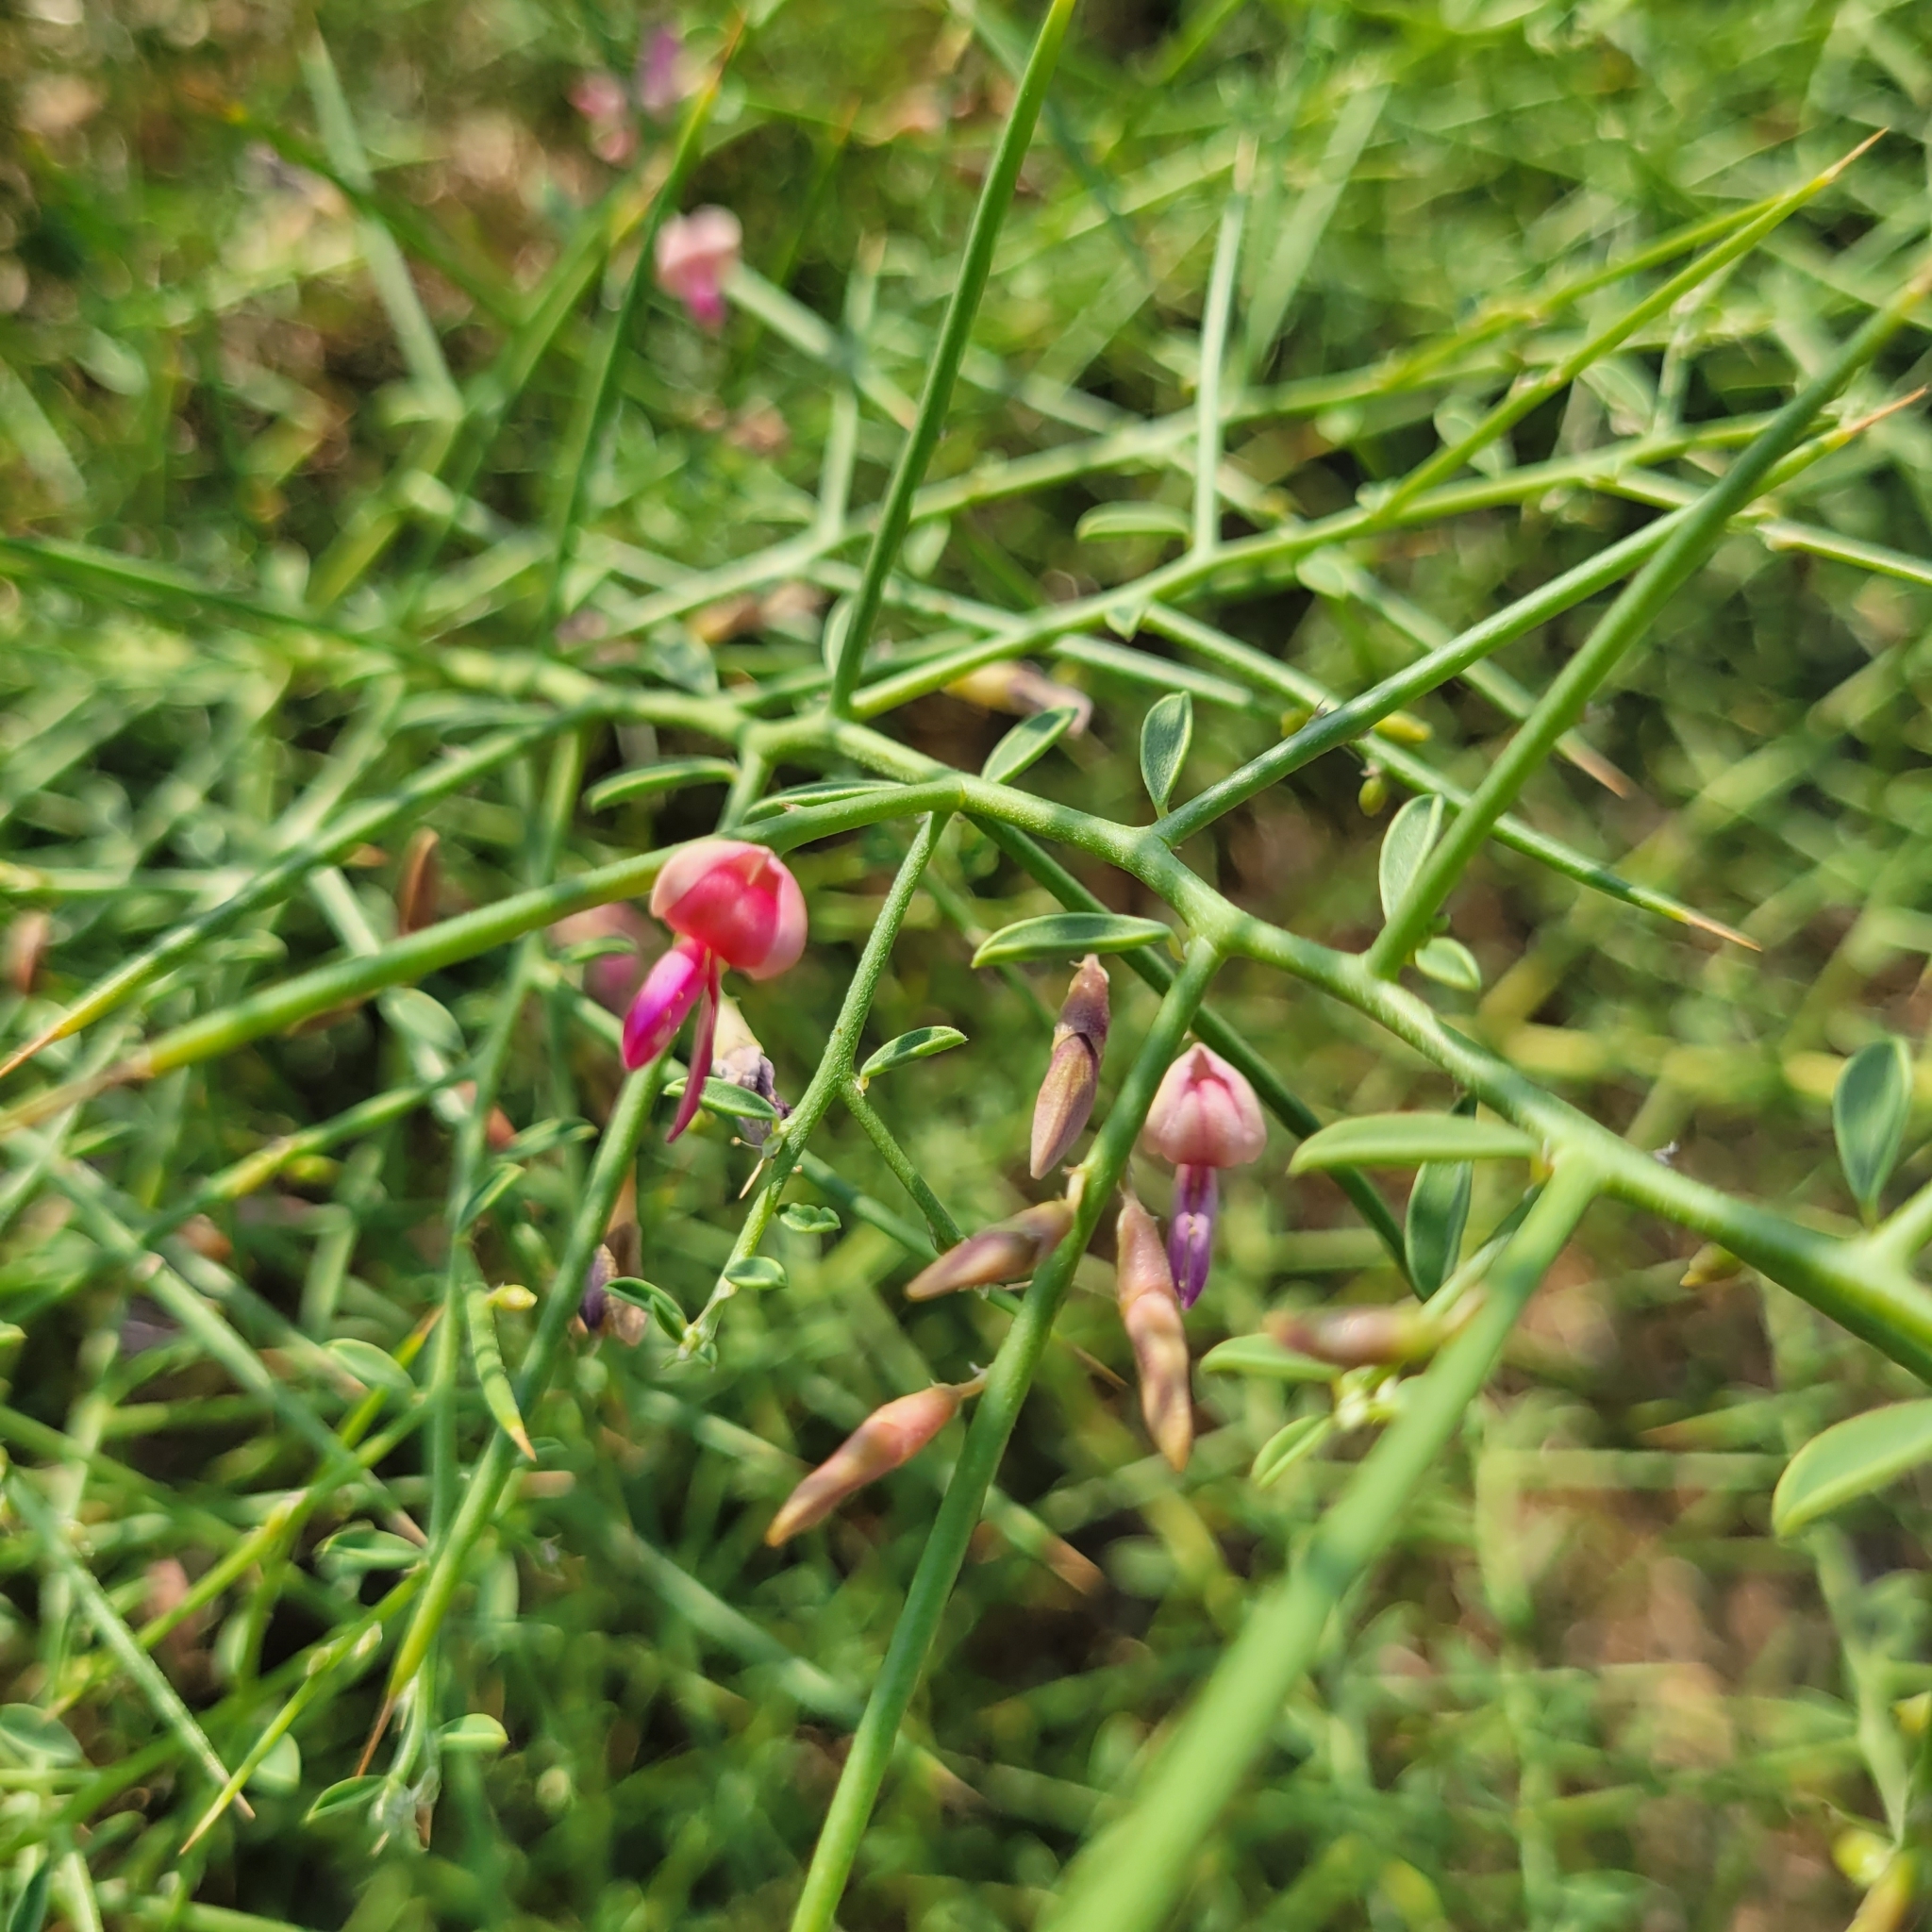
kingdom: Plantae
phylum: Tracheophyta
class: Magnoliopsida
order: Fabales
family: Fabaceae
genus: Alhagi
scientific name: Alhagi graecorum
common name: Persian mannaplant
